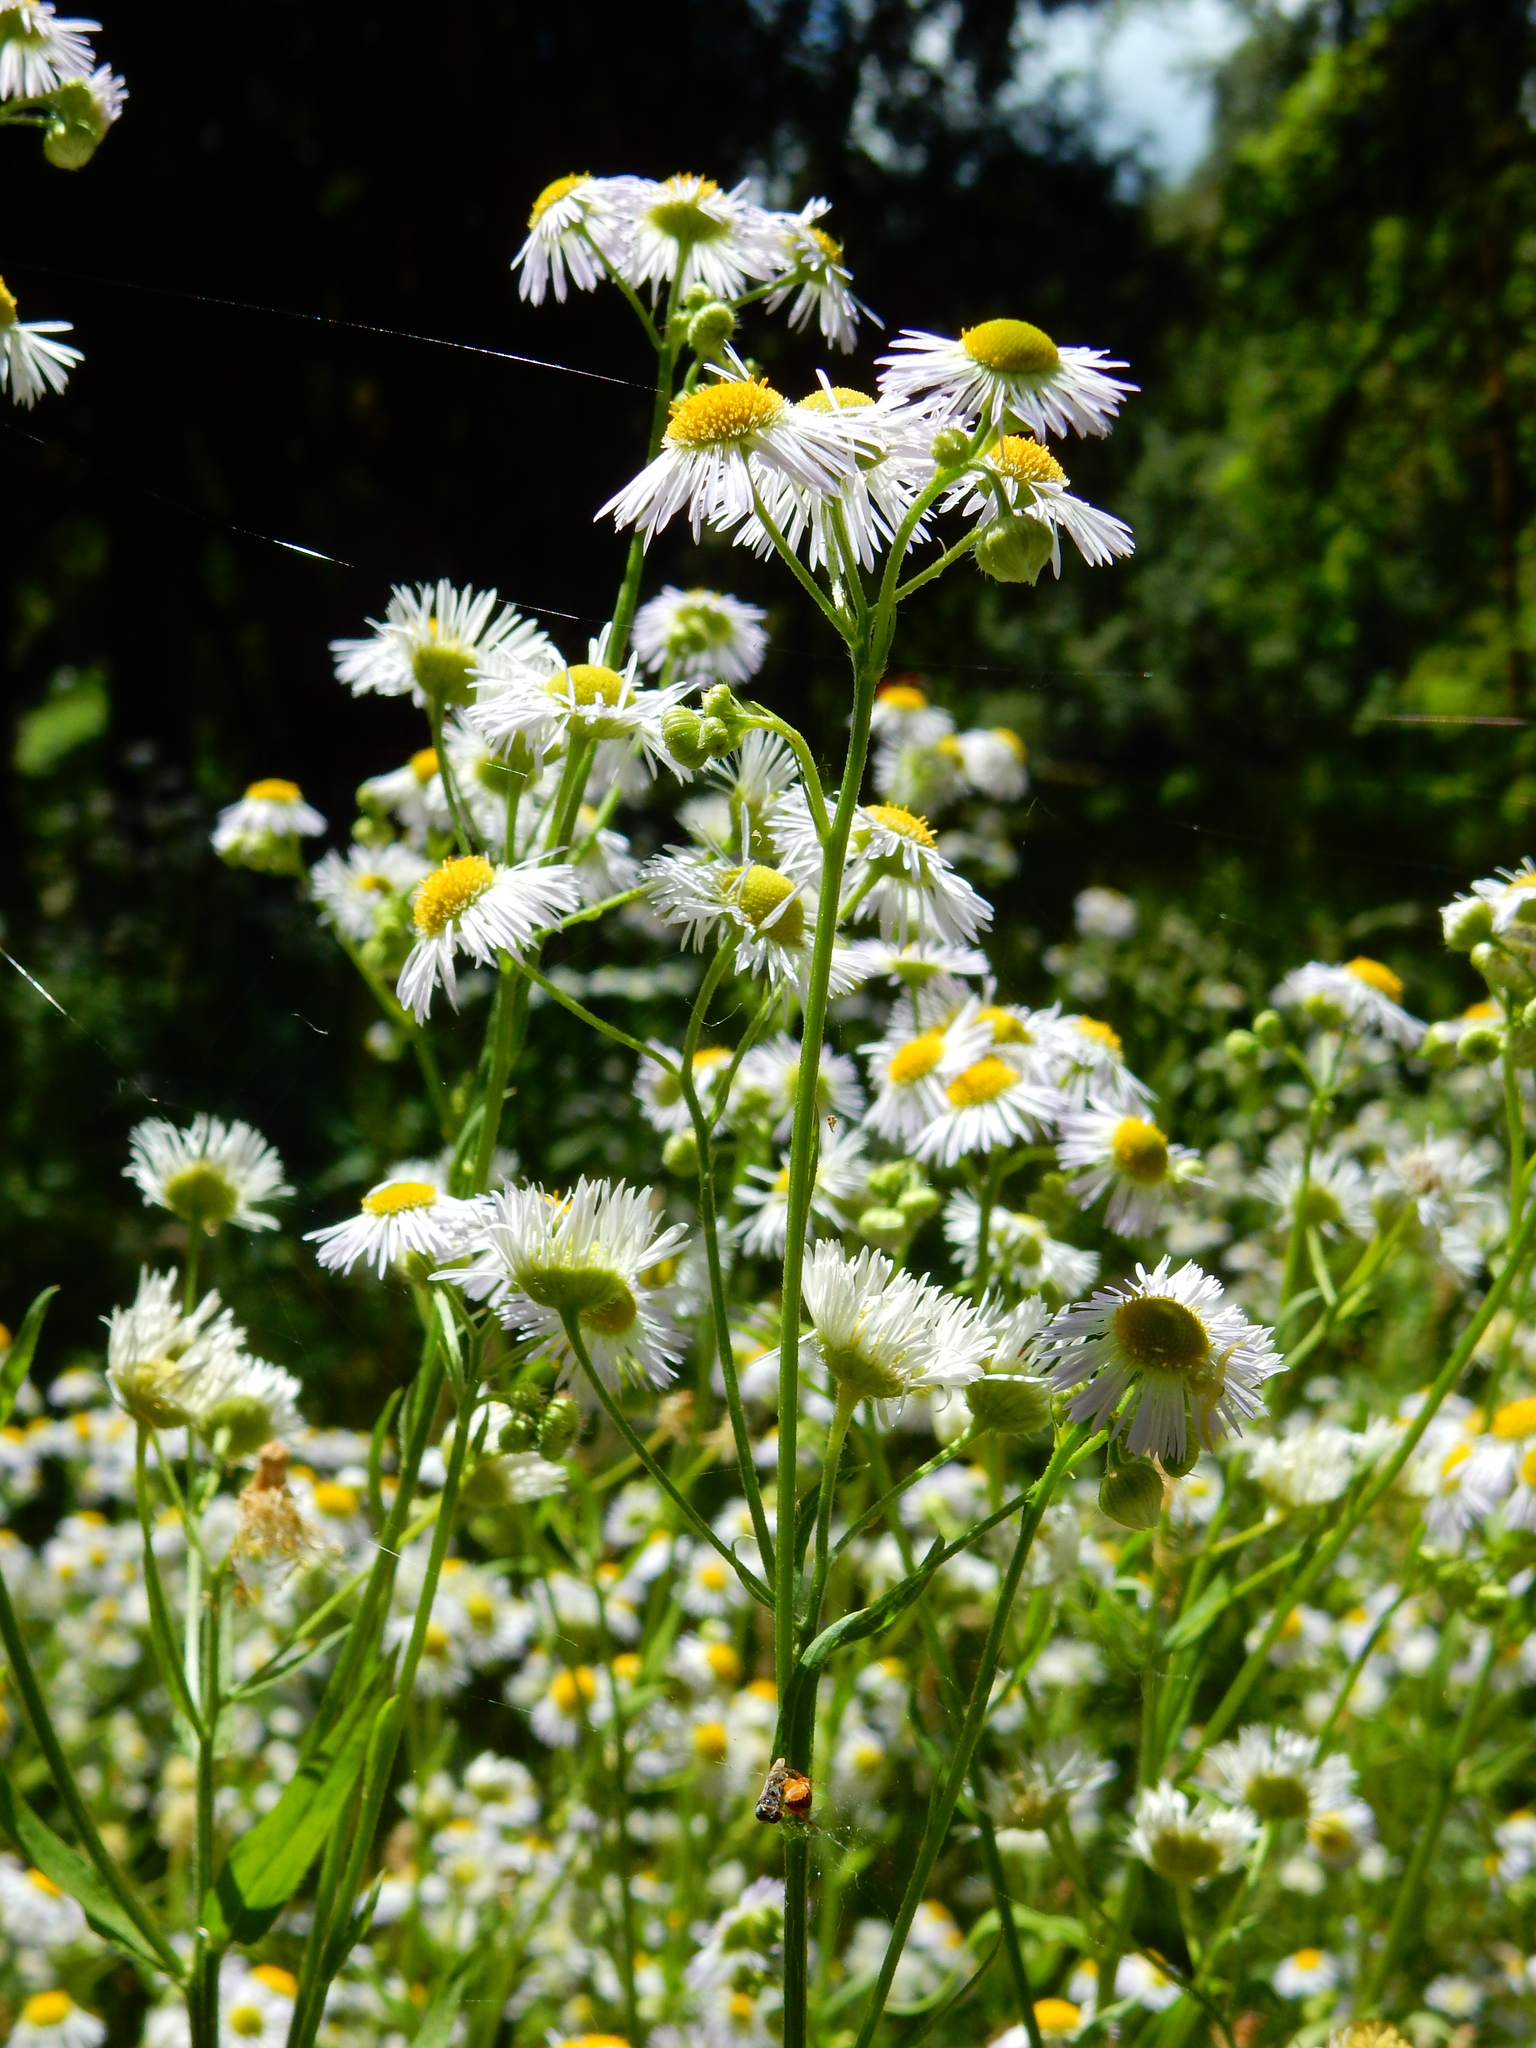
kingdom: Plantae
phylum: Tracheophyta
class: Magnoliopsida
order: Asterales
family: Asteraceae
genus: Erigeron
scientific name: Erigeron philadelphicus
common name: Robin's-plantain
